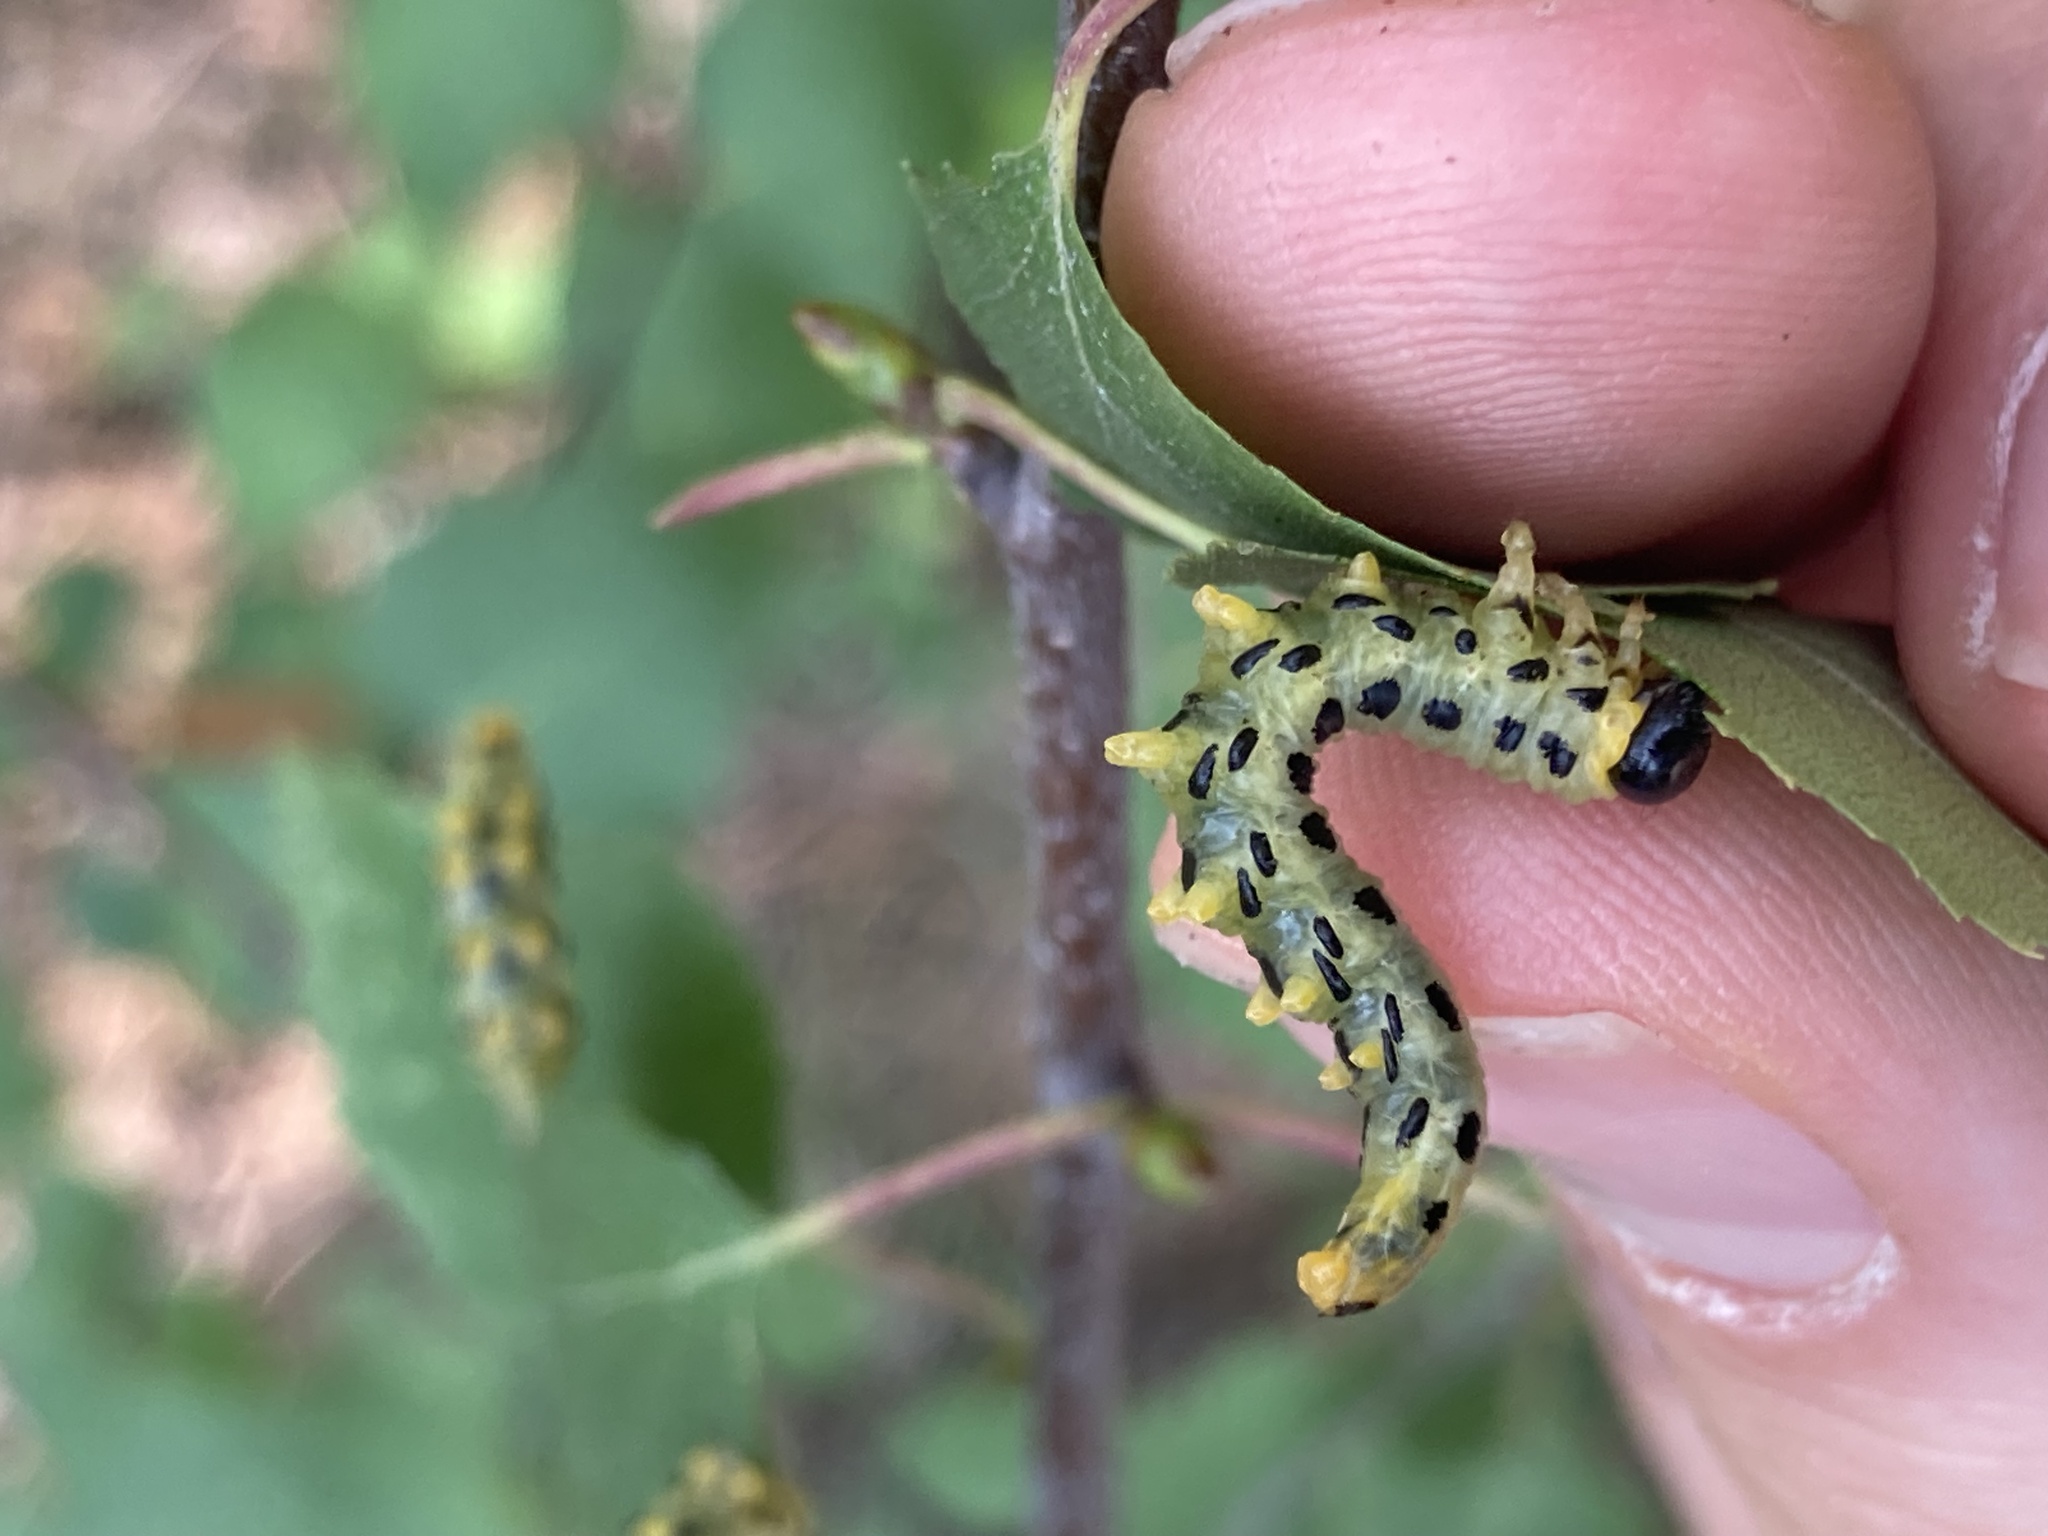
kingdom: Animalia
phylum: Arthropoda
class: Insecta
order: Hymenoptera
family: Tenthredinidae
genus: Craesus
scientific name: Craesus septentrionalis
